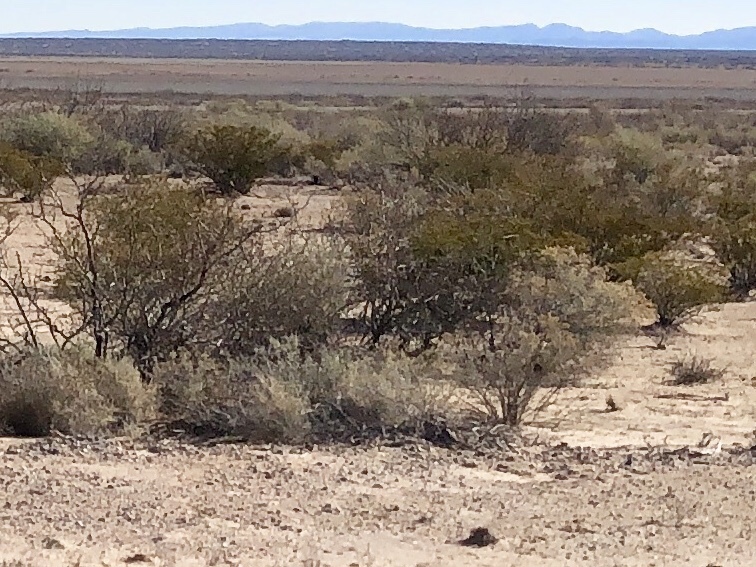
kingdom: Plantae
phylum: Tracheophyta
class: Magnoliopsida
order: Zygophyllales
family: Zygophyllaceae
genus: Larrea
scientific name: Larrea tridentata
